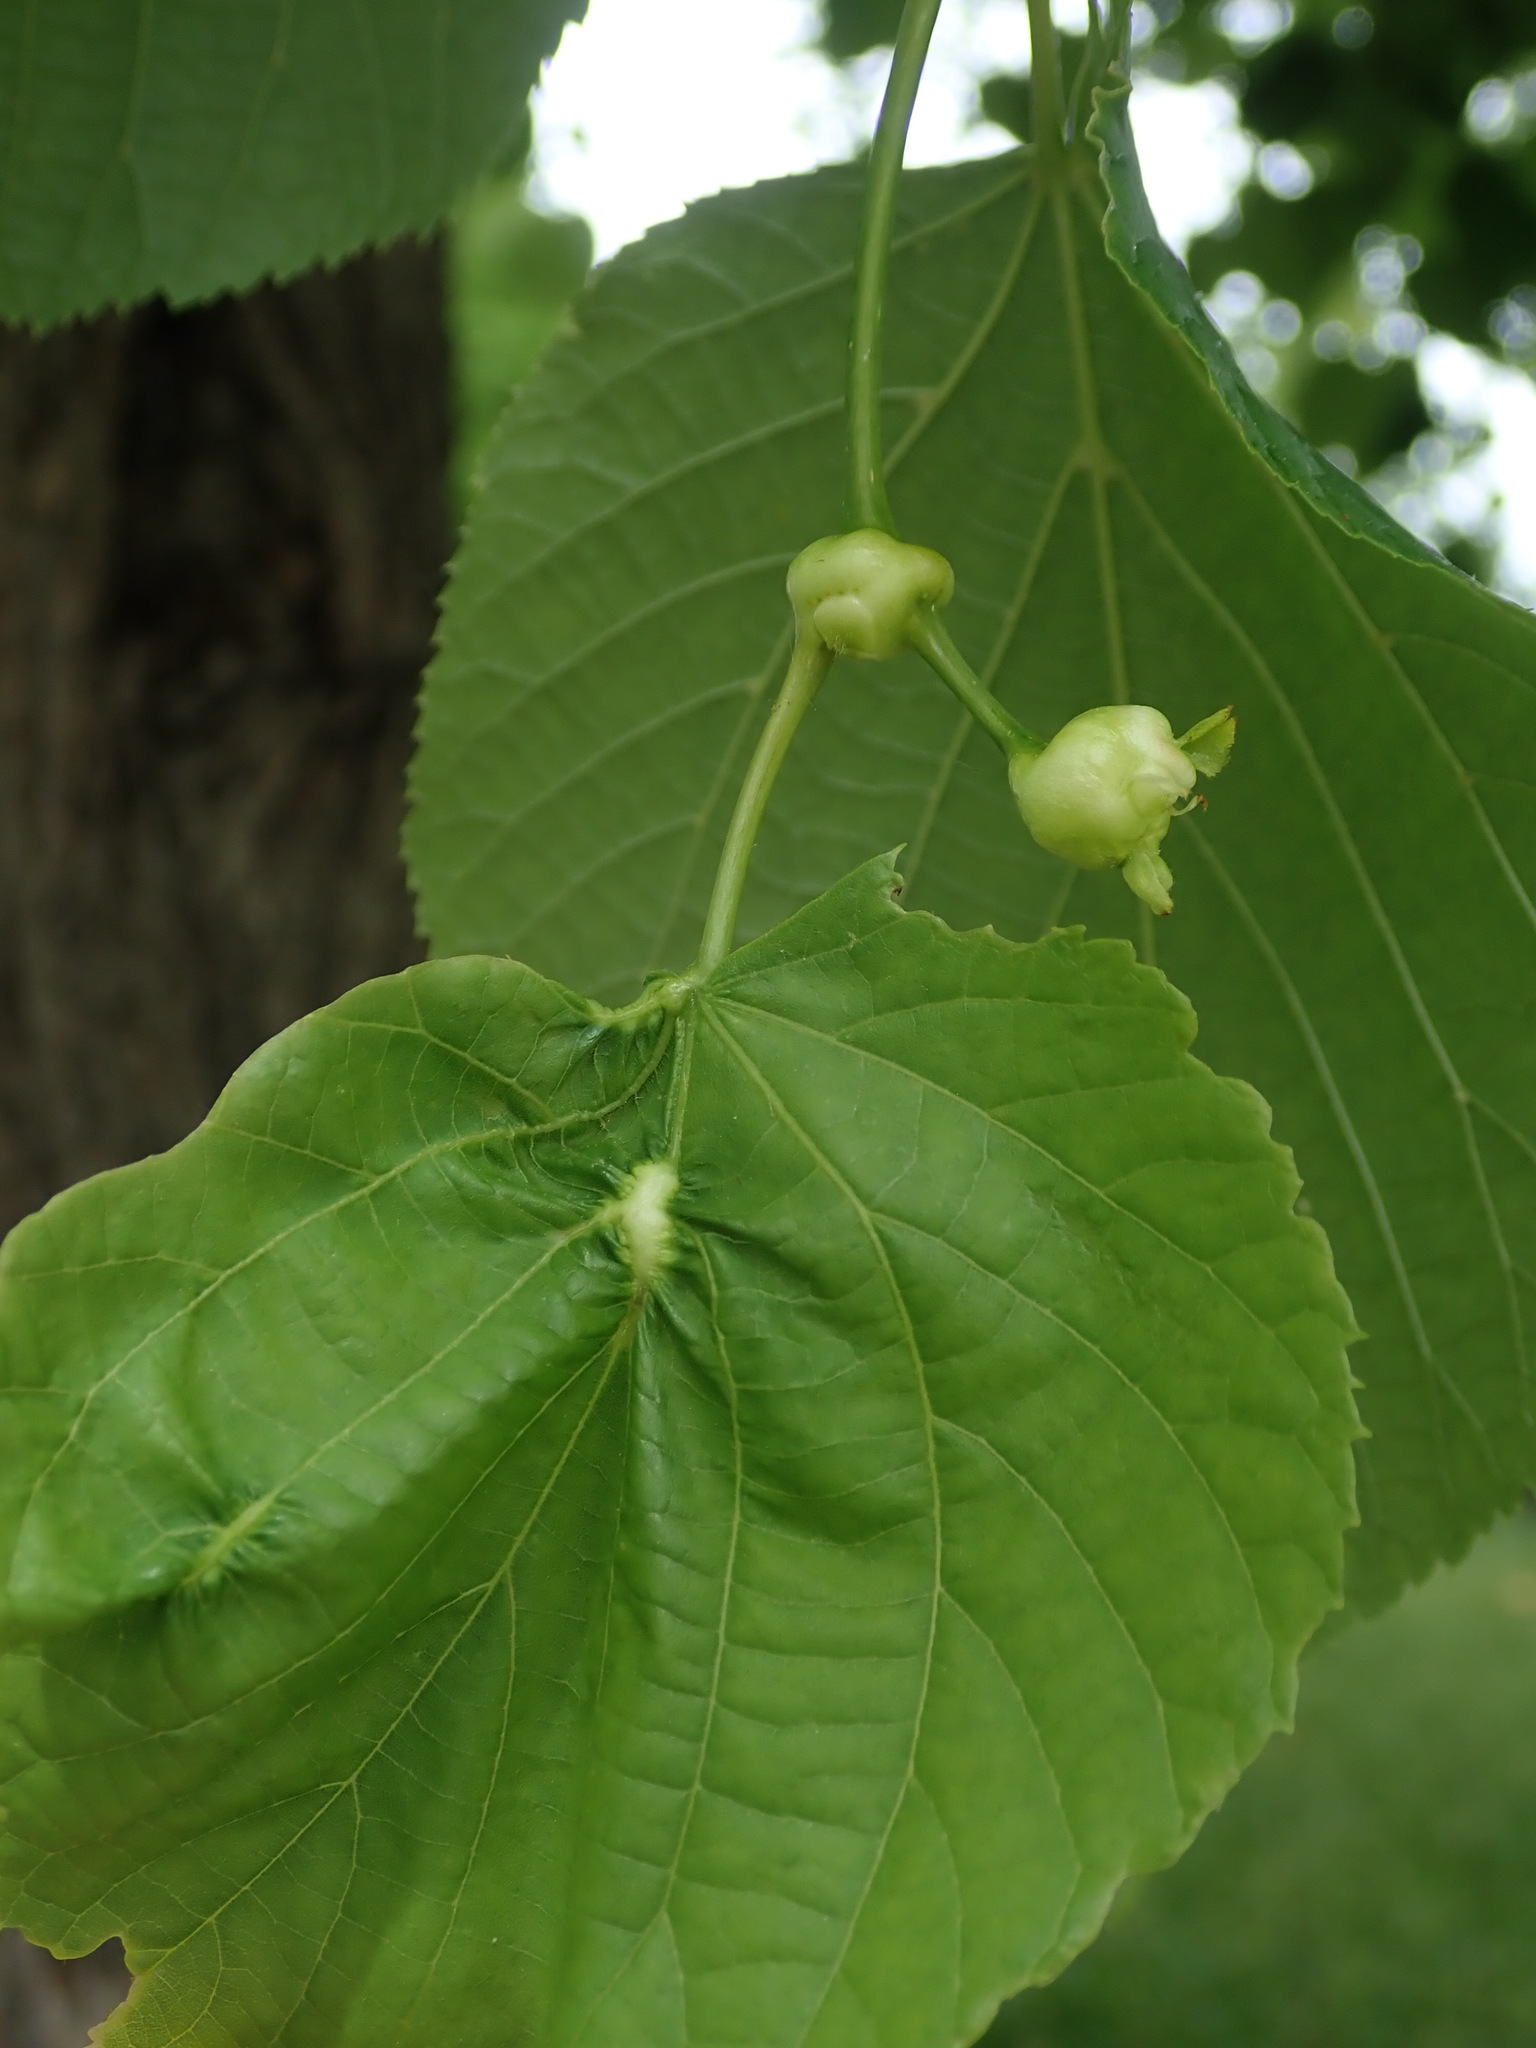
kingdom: Animalia
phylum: Arthropoda
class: Insecta
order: Diptera
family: Cecidomyiidae
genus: Contarinia
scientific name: Contarinia tiliarum
